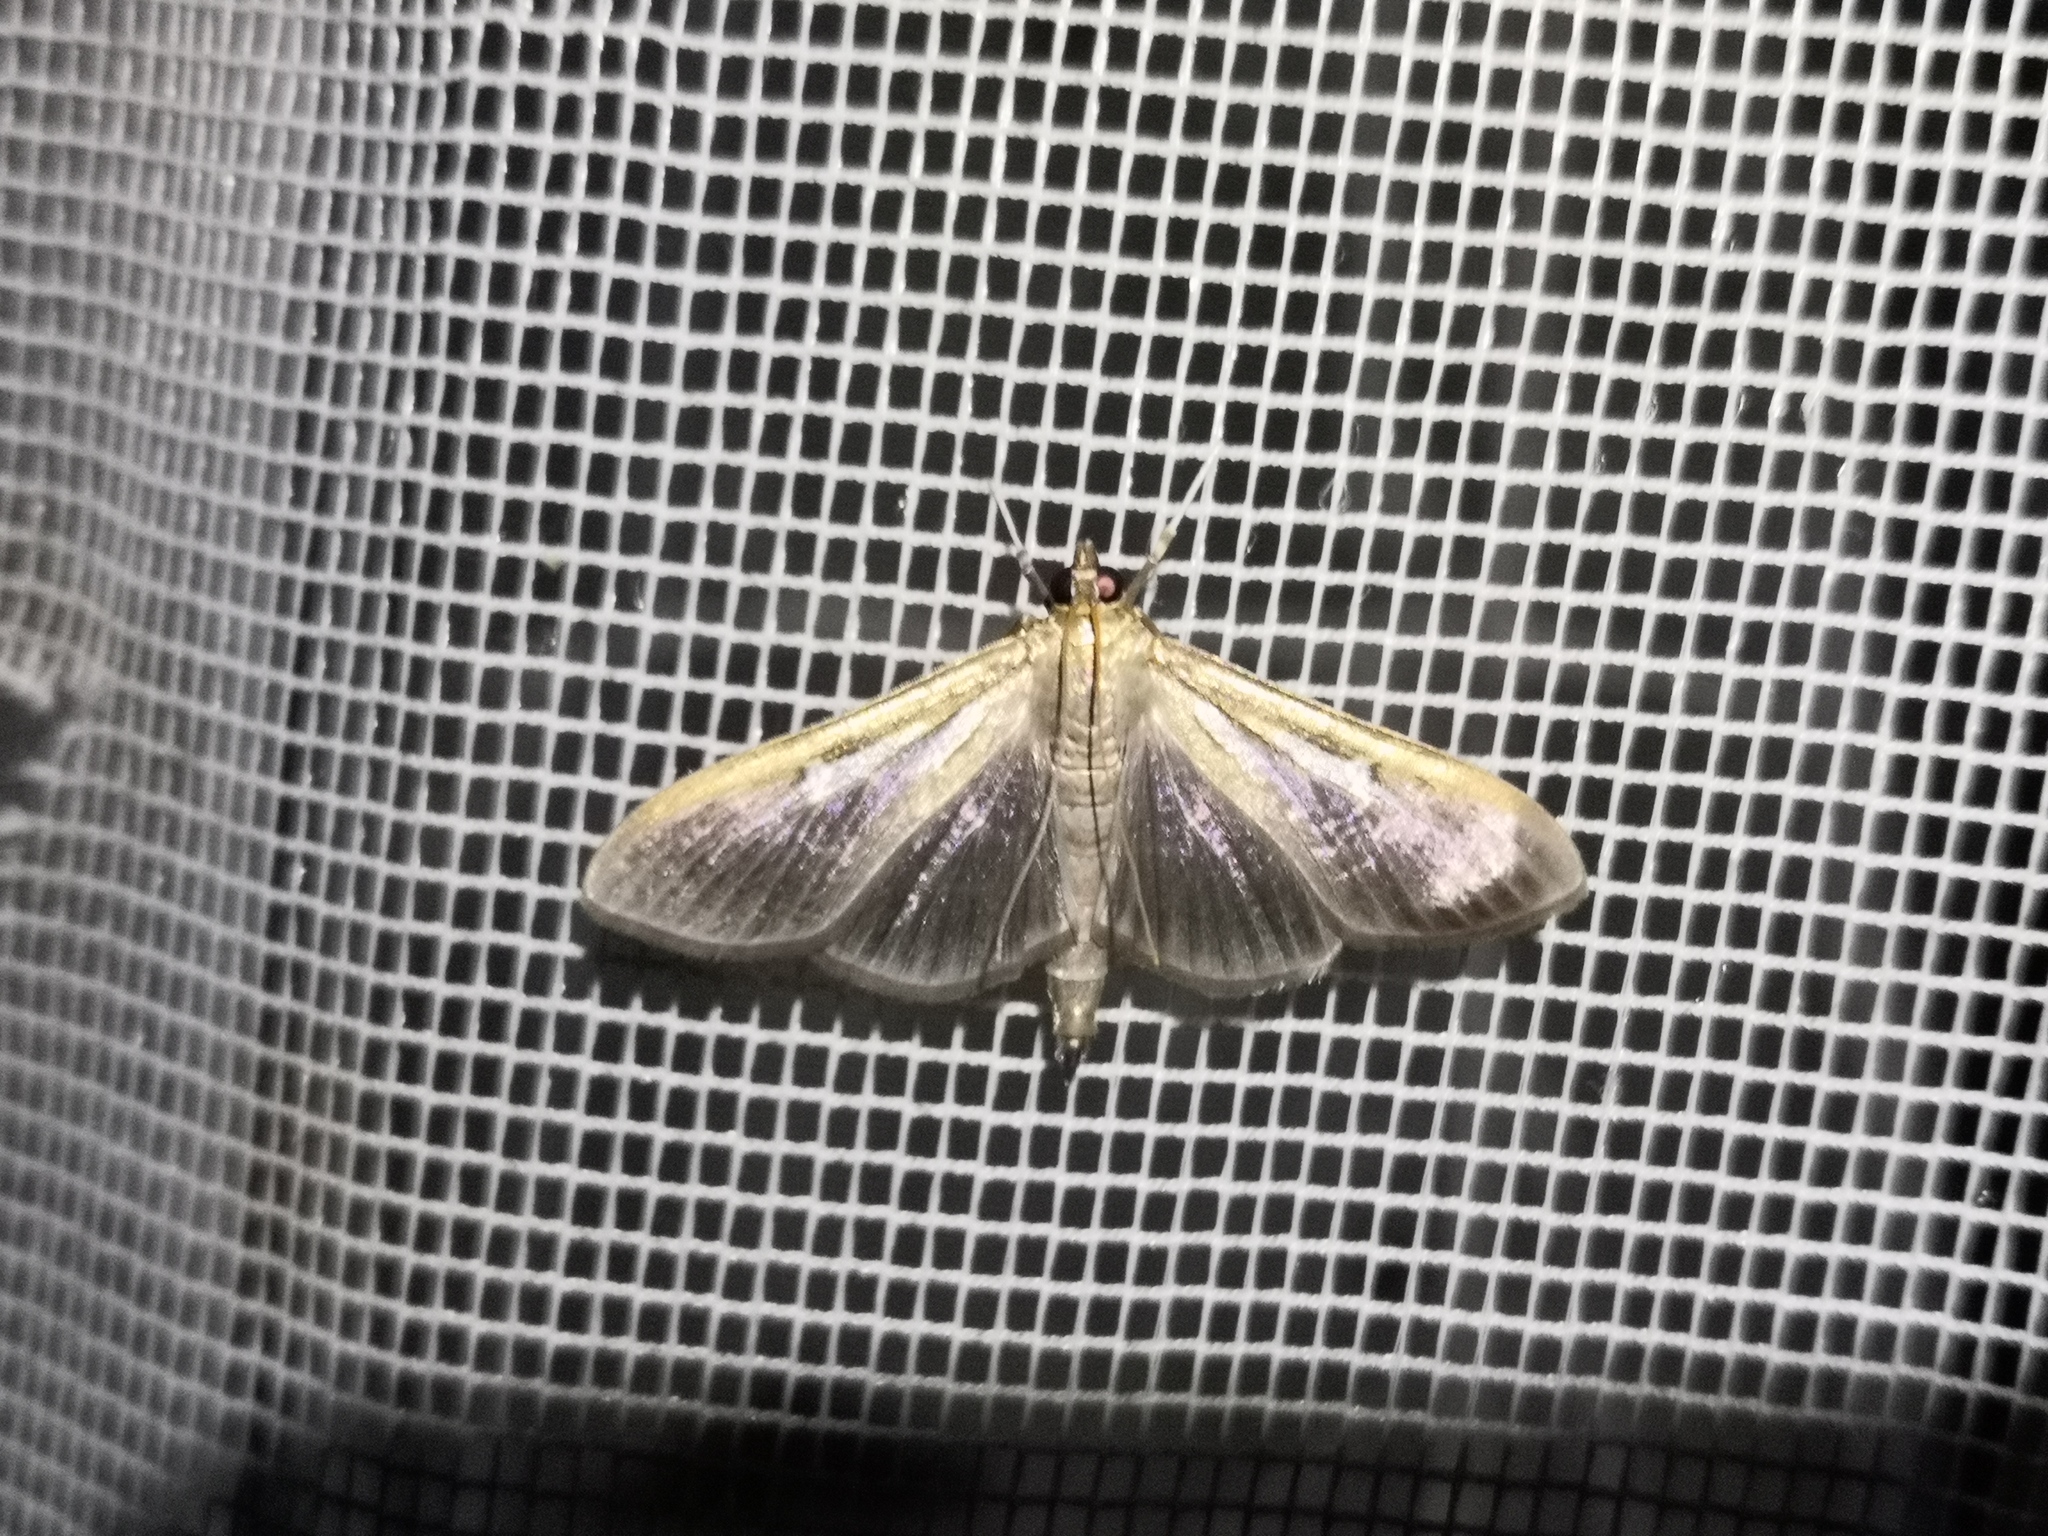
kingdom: Animalia
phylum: Arthropoda
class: Insecta
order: Lepidoptera
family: Crambidae
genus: Cydalima
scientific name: Cydalima perspectalis
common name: Box tree moth
